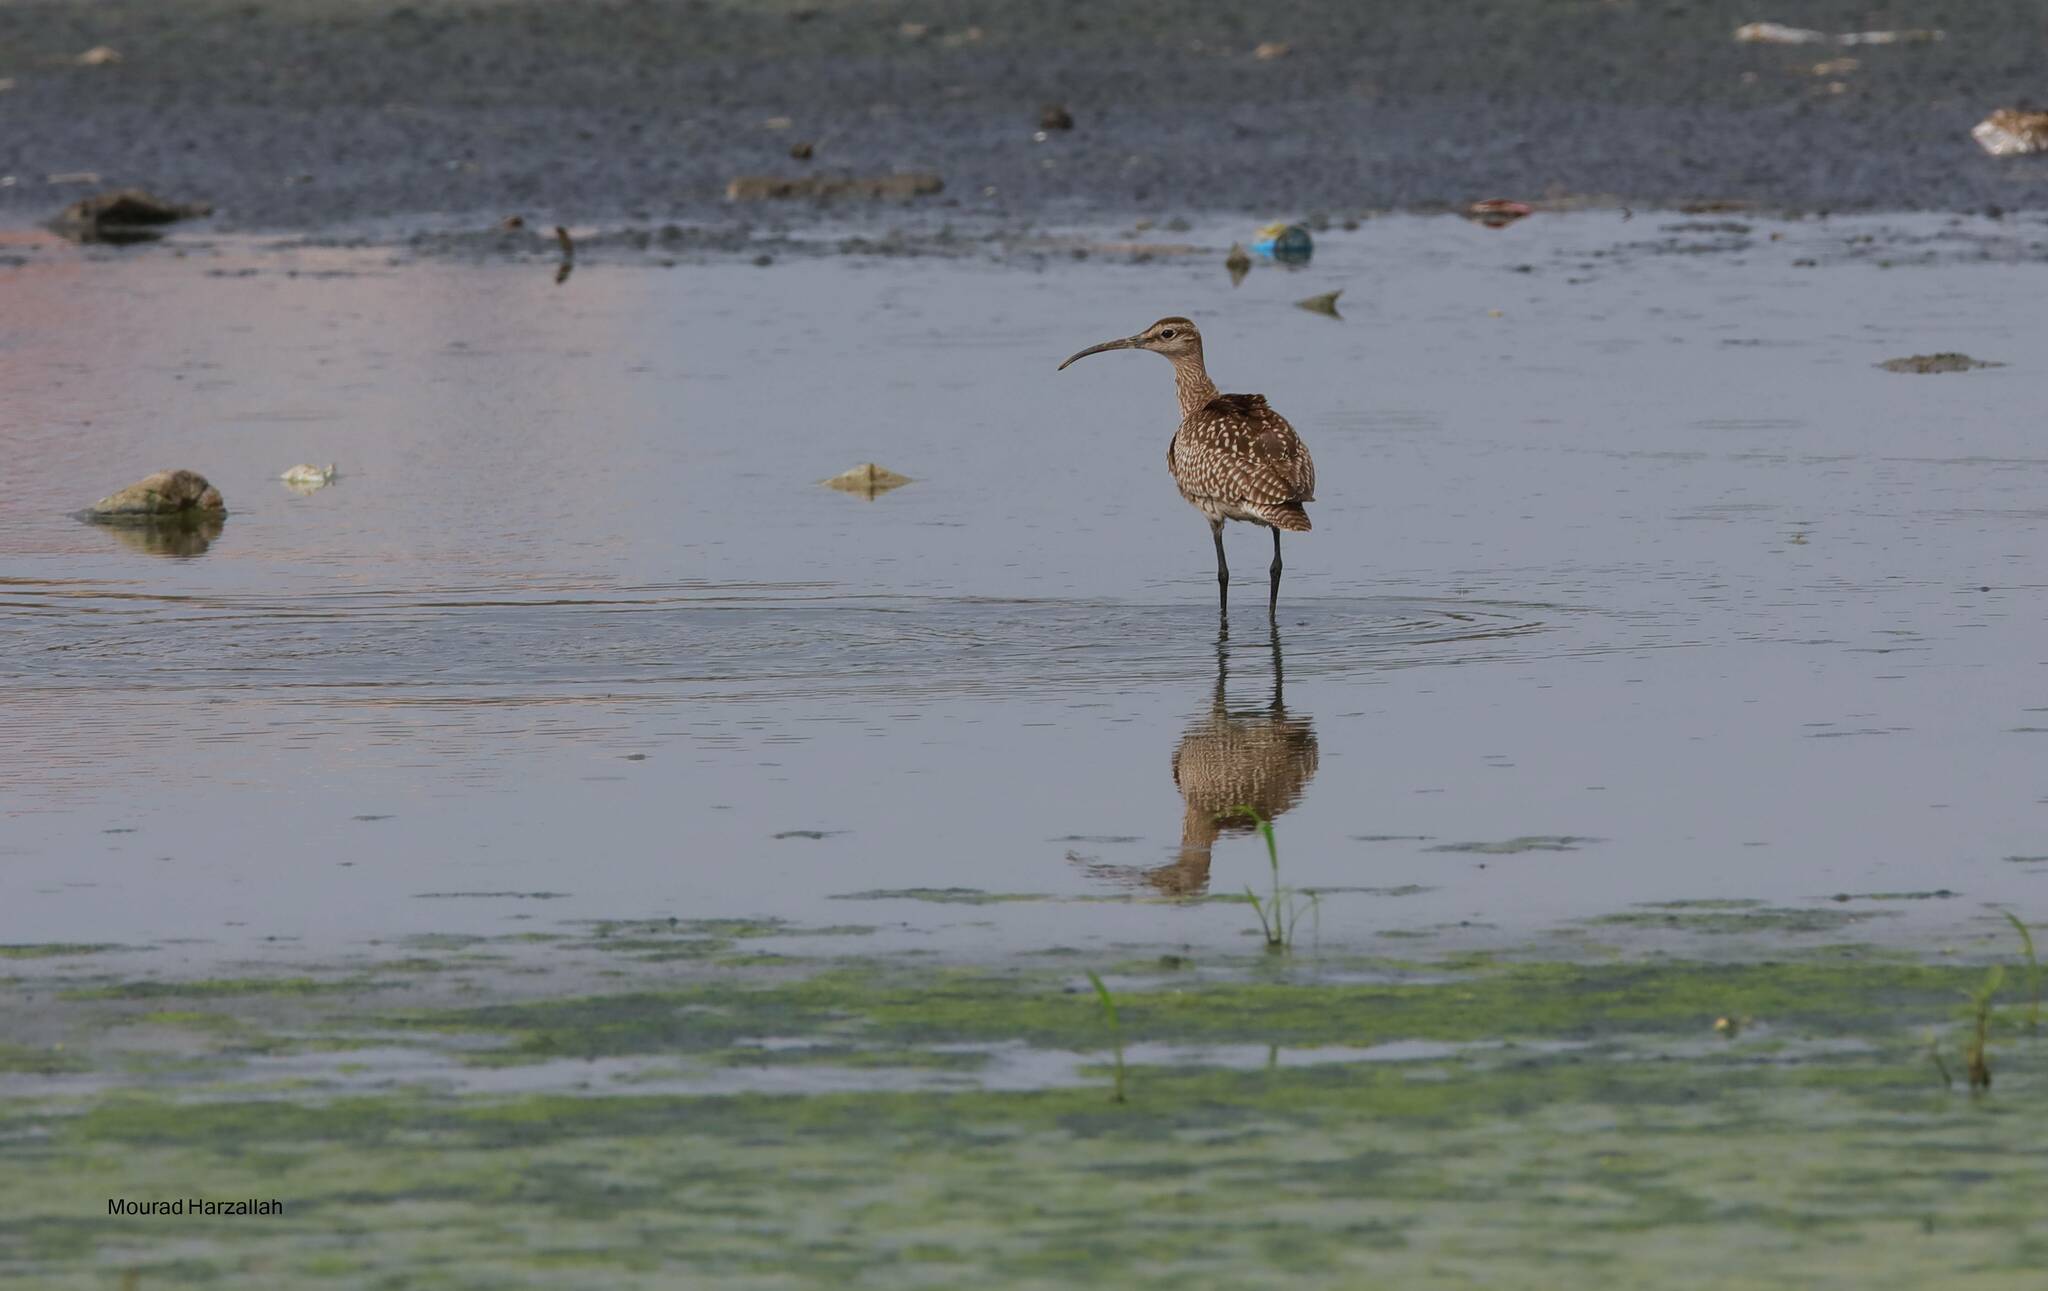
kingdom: Animalia
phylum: Chordata
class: Aves
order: Charadriiformes
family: Scolopacidae
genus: Numenius
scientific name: Numenius phaeopus
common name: Whimbrel
